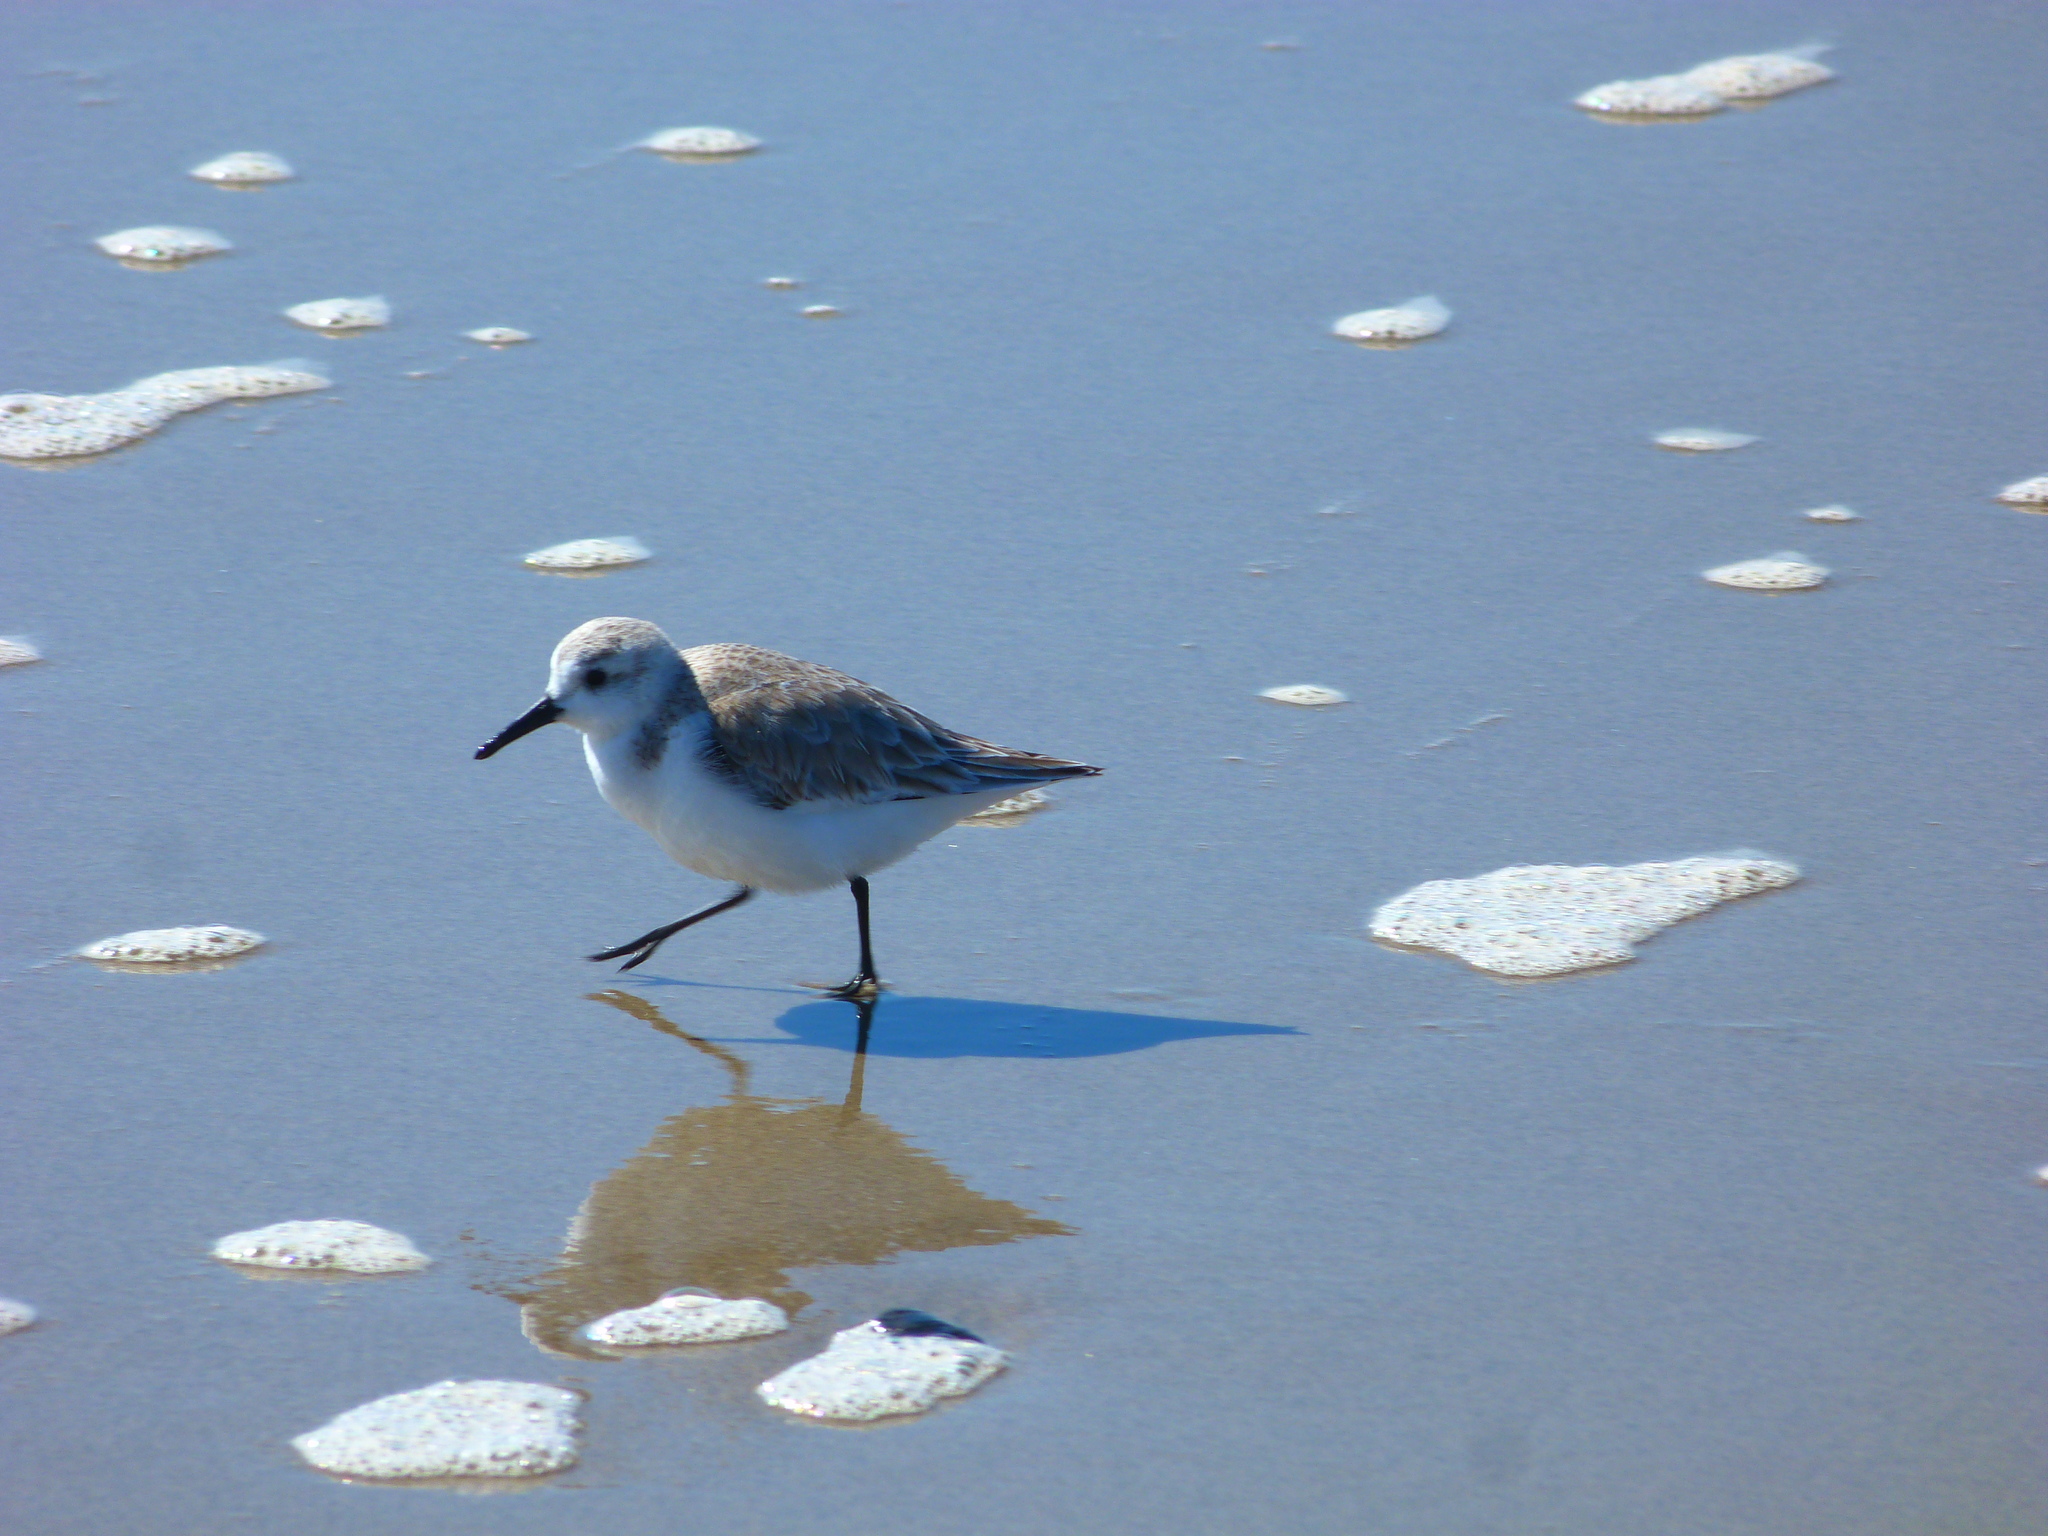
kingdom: Animalia
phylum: Chordata
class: Aves
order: Charadriiformes
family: Scolopacidae
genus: Calidris
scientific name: Calidris alba
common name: Sanderling
